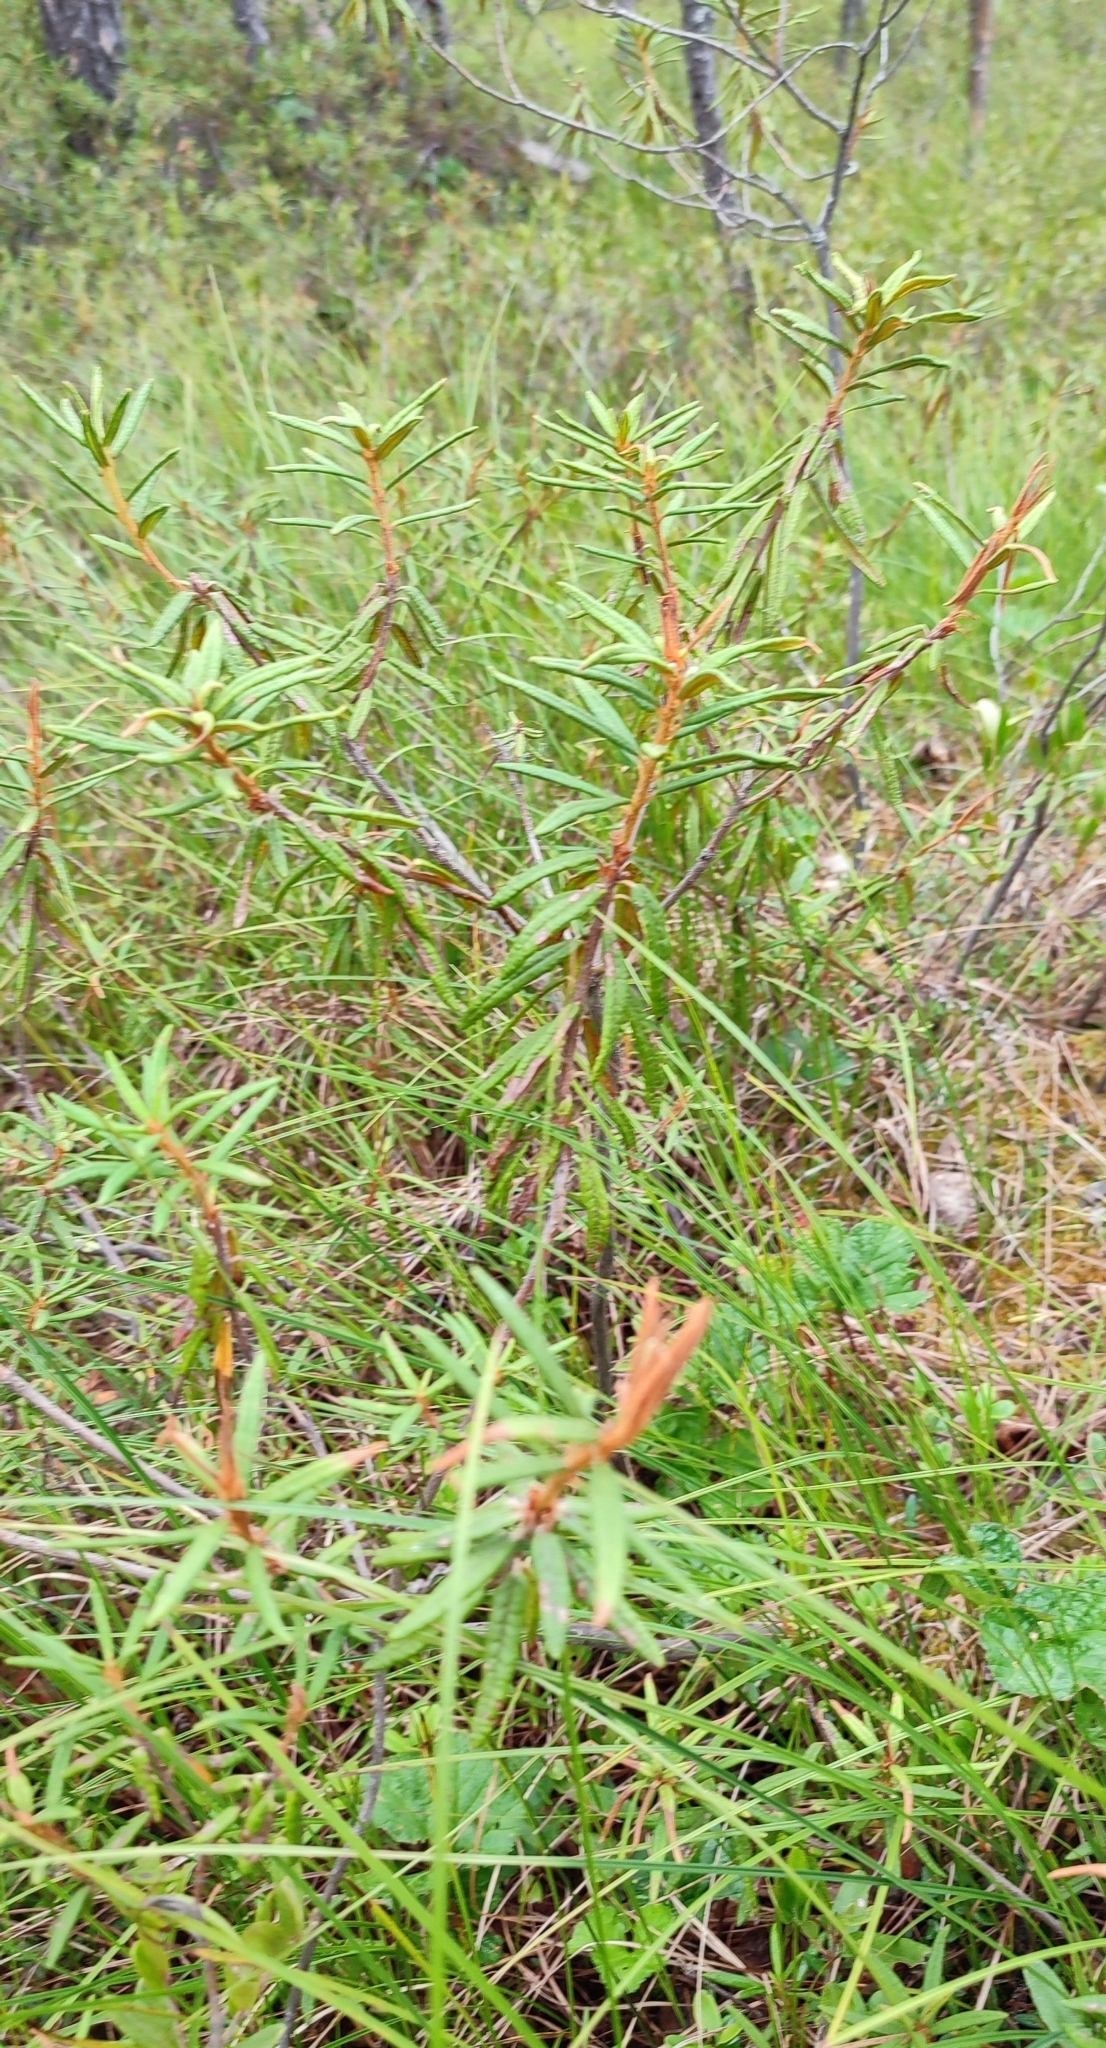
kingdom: Plantae
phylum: Tracheophyta
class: Magnoliopsida
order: Ericales
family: Ericaceae
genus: Rhododendron
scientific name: Rhododendron tomentosum
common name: Marsh labrador tea
